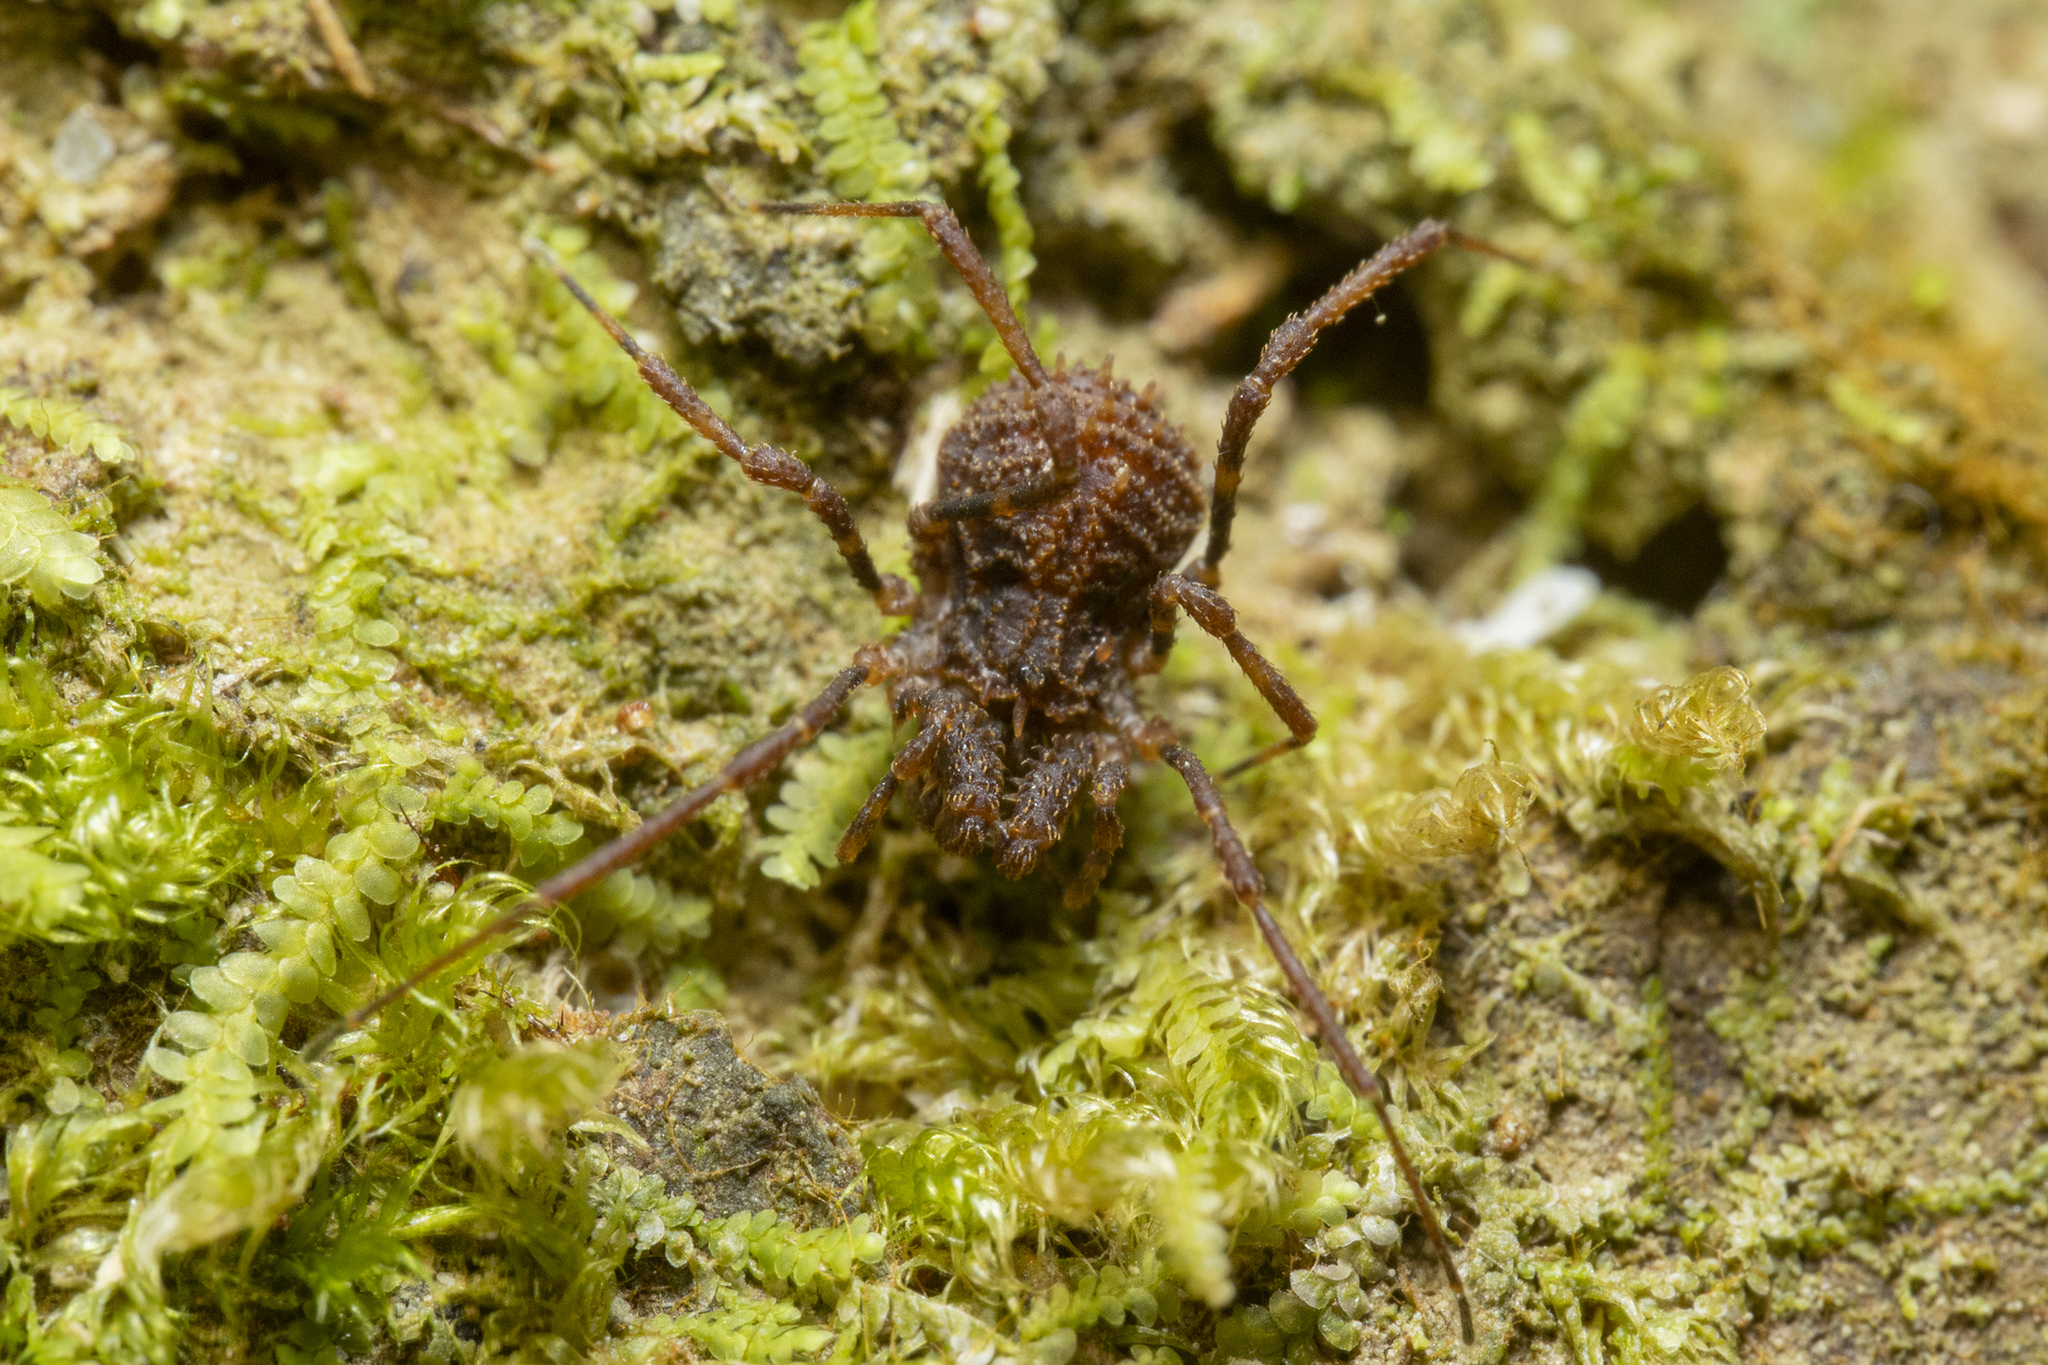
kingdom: Animalia
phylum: Arthropoda
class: Arachnida
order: Opiliones
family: Triaenonychidae
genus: Cenefia
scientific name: Cenefia westlandica
